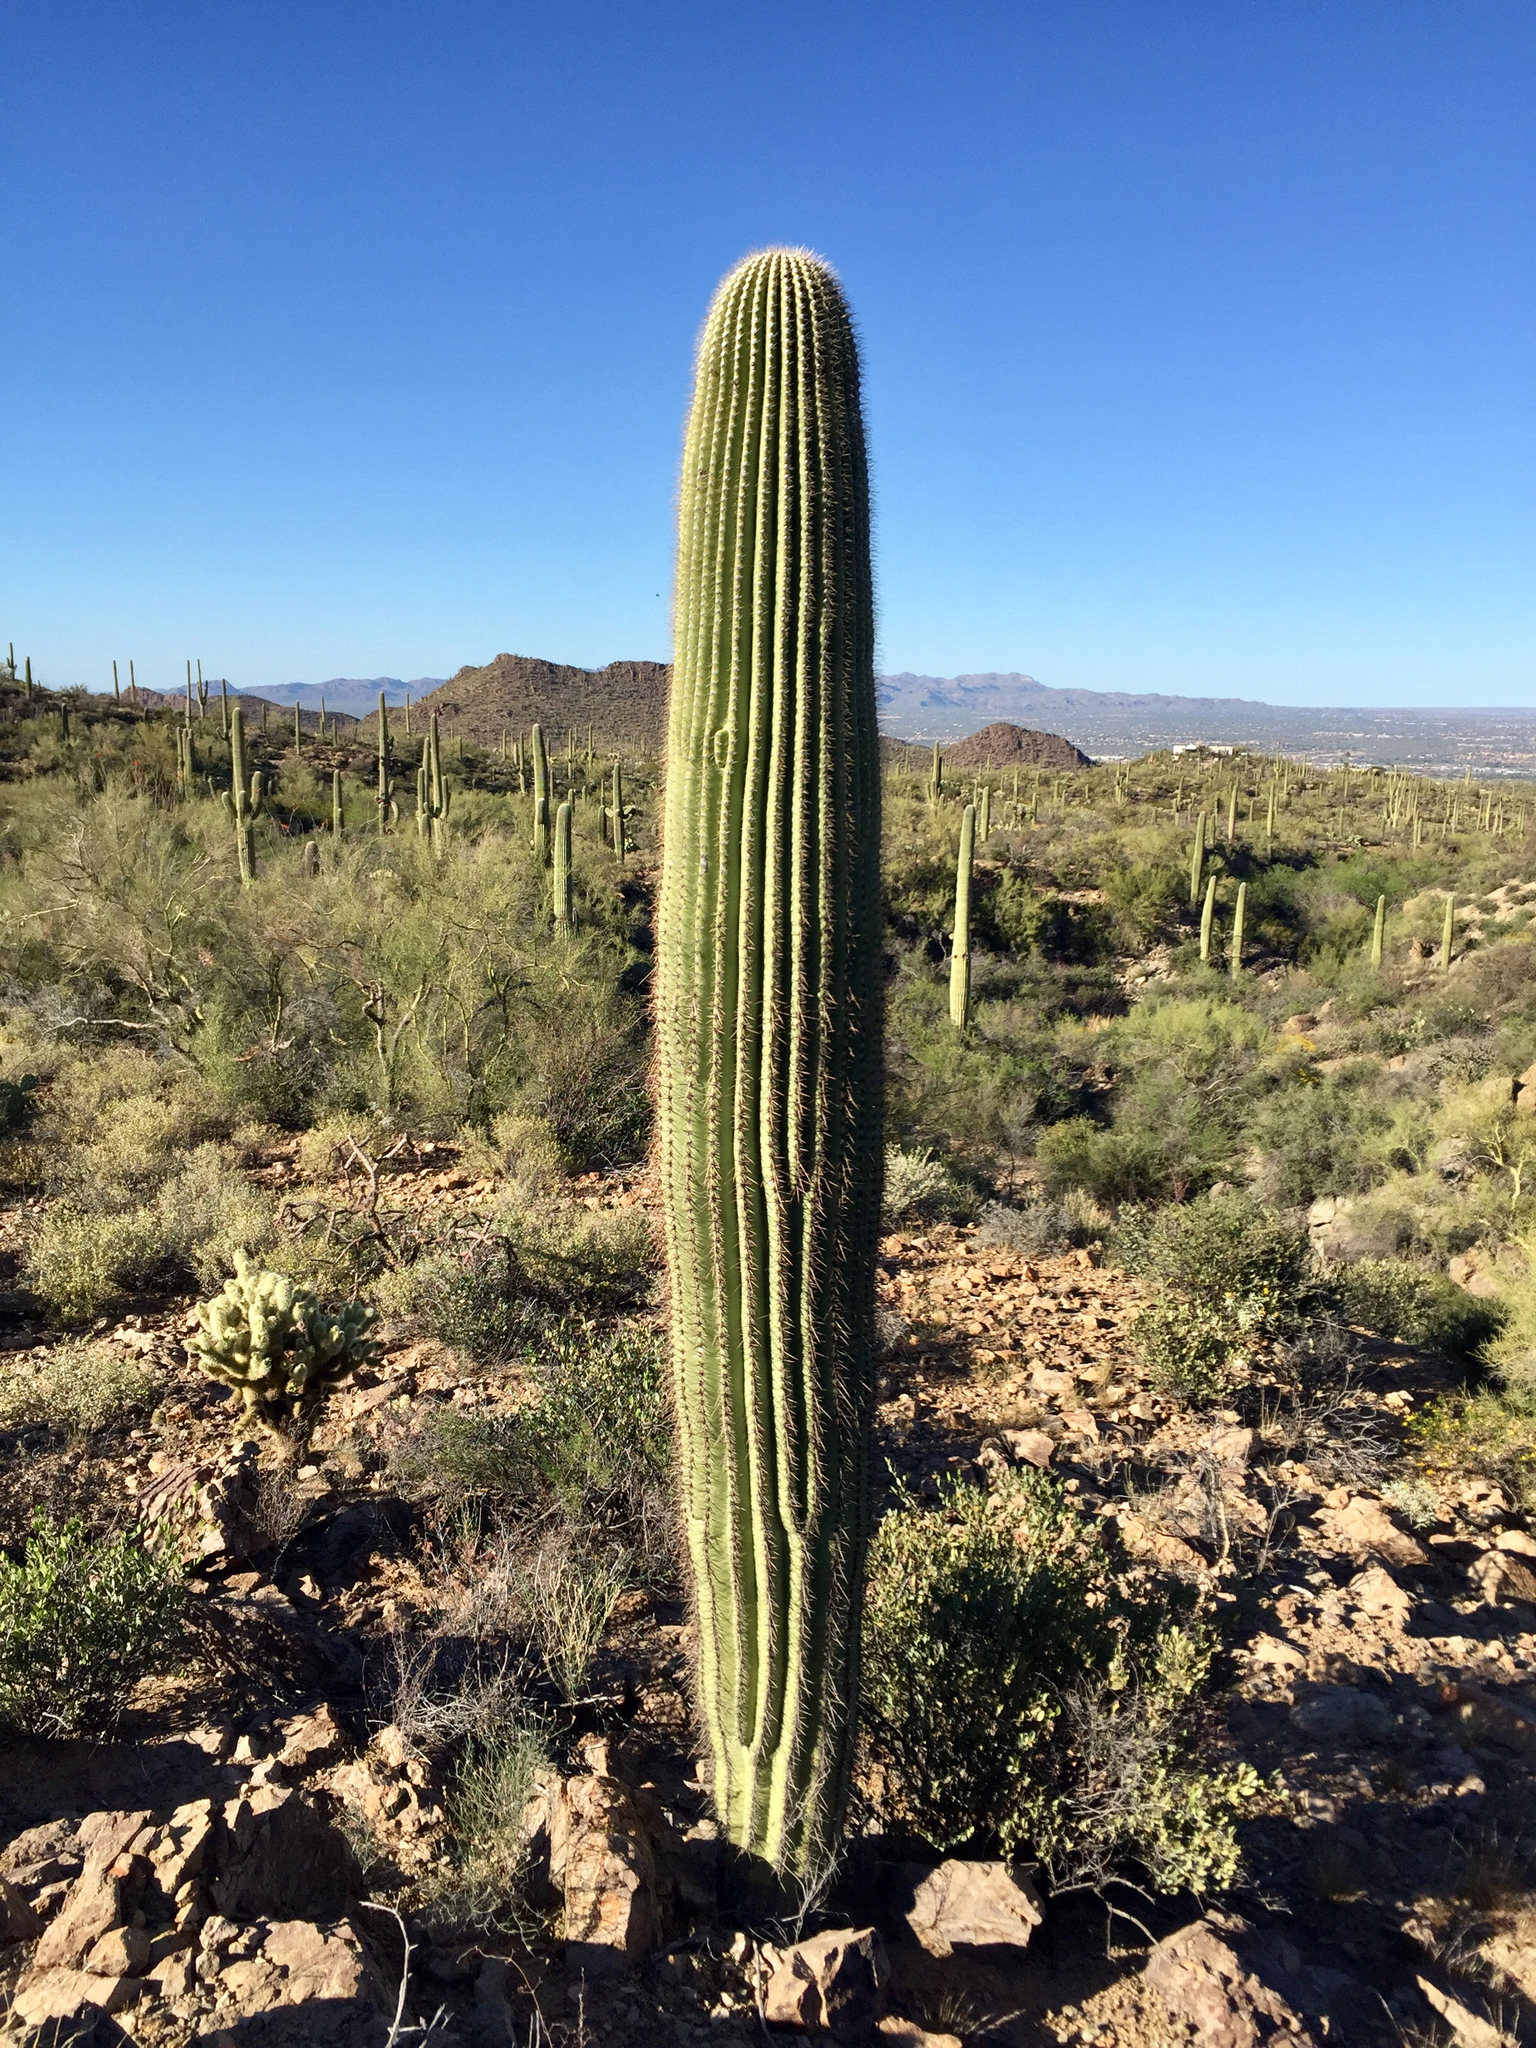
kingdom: Plantae
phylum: Tracheophyta
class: Magnoliopsida
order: Caryophyllales
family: Cactaceae
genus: Carnegiea
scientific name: Carnegiea gigantea
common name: Saguaro
